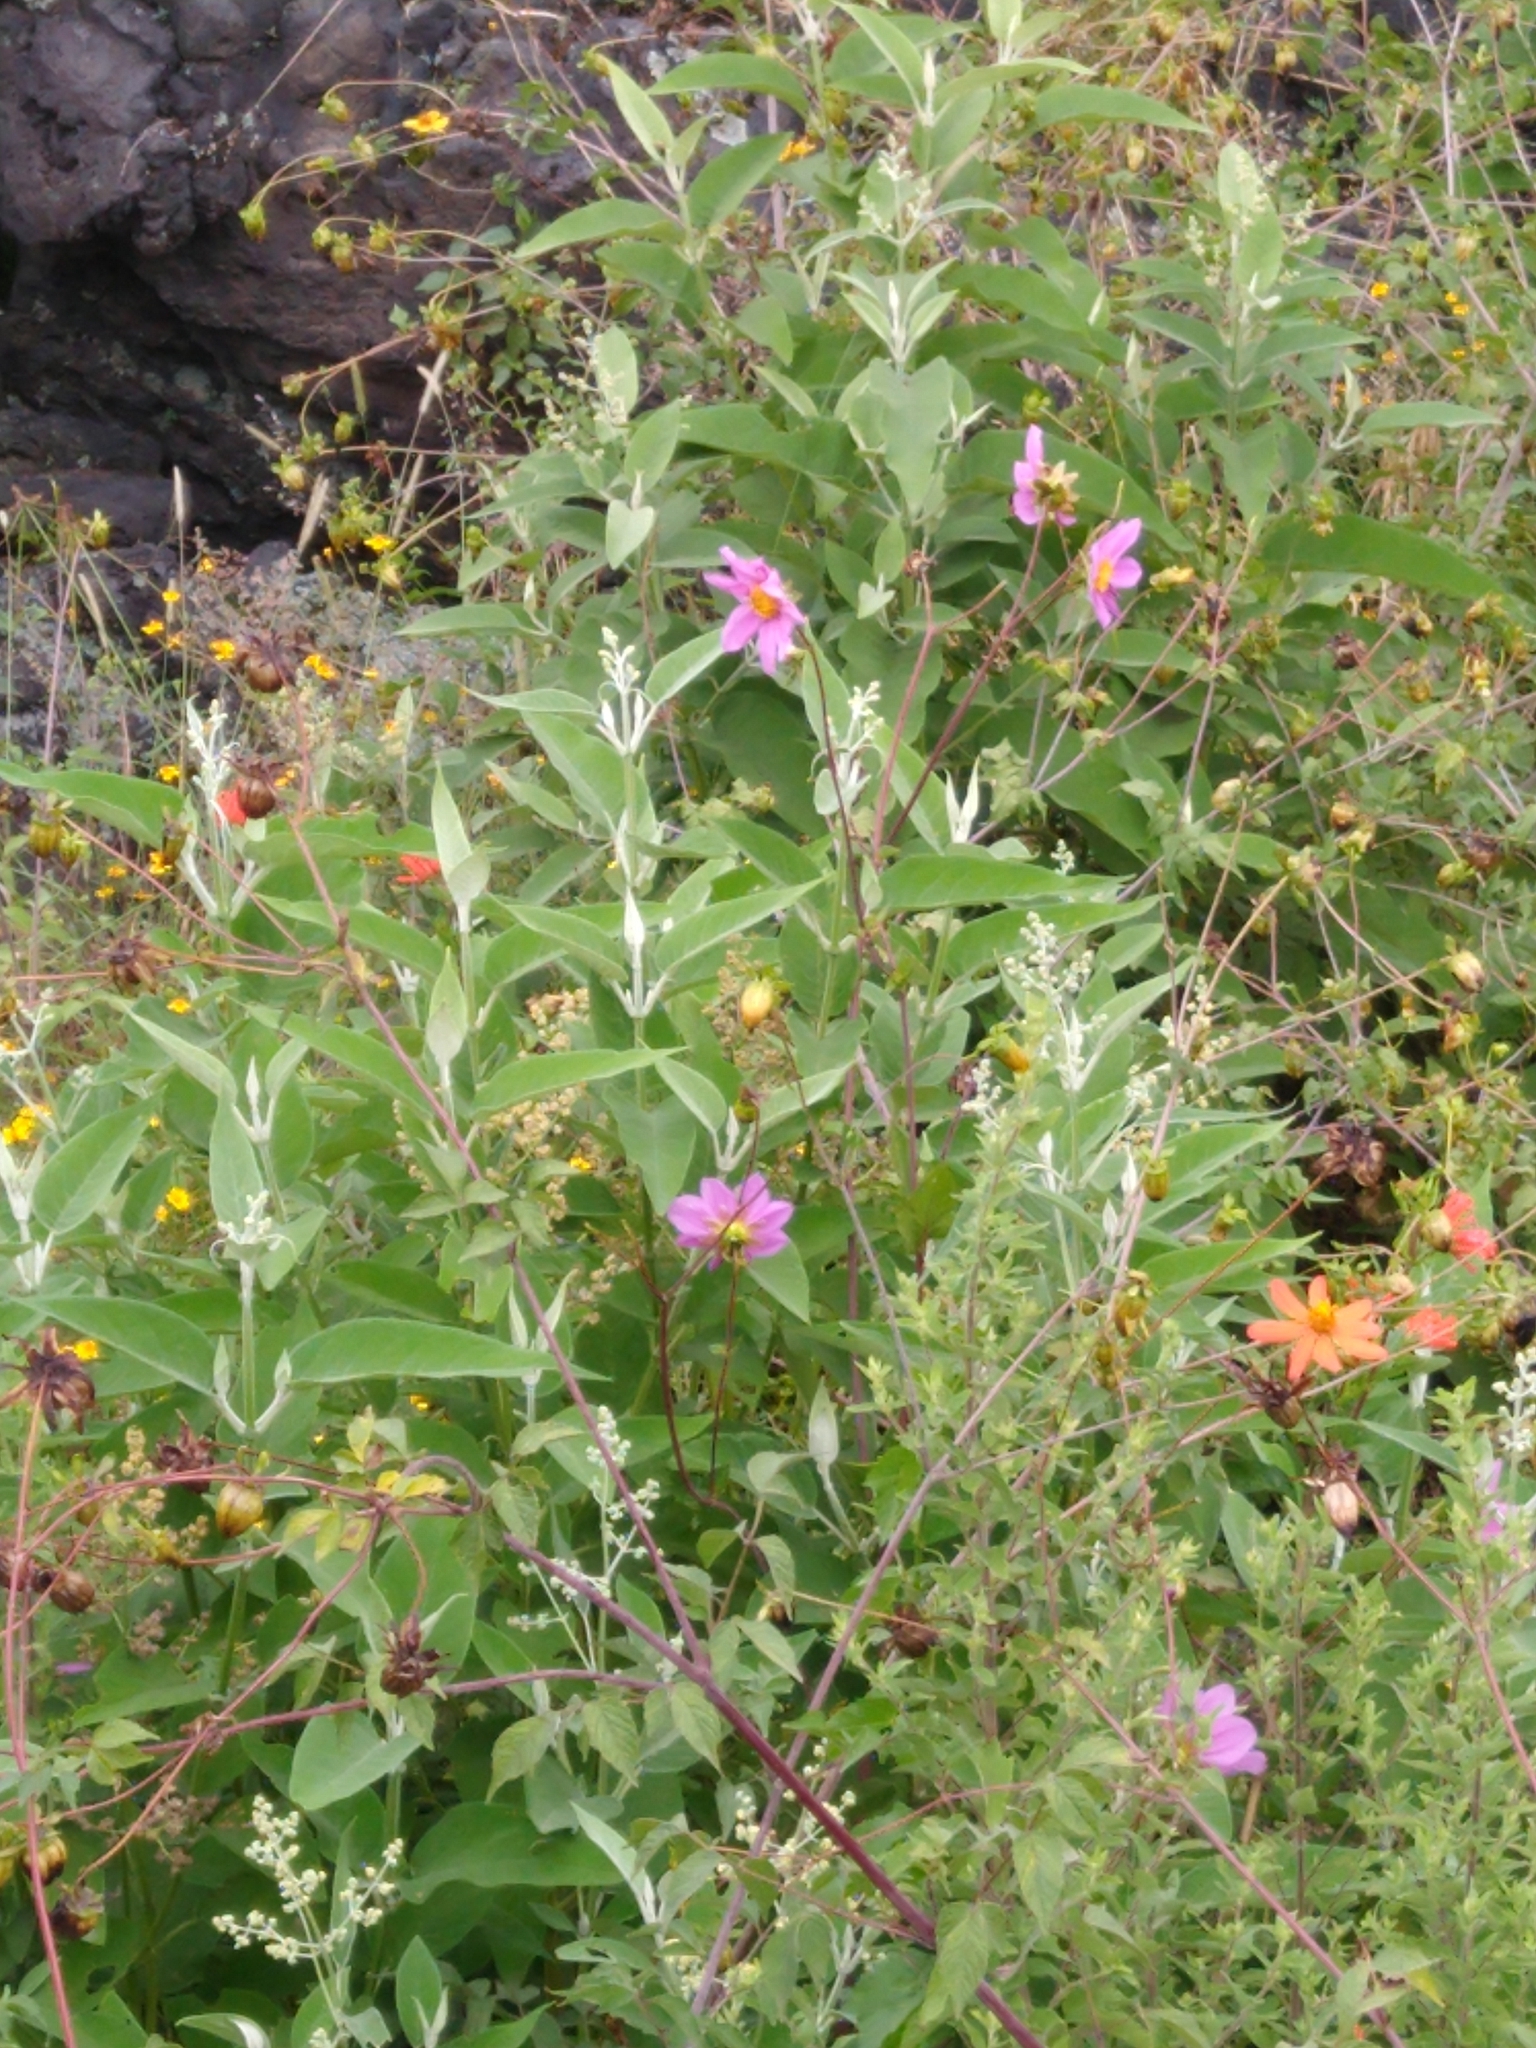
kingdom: Plantae
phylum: Tracheophyta
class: Magnoliopsida
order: Asterales
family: Asteraceae
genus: Dahlia
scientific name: Dahlia sorensenii
